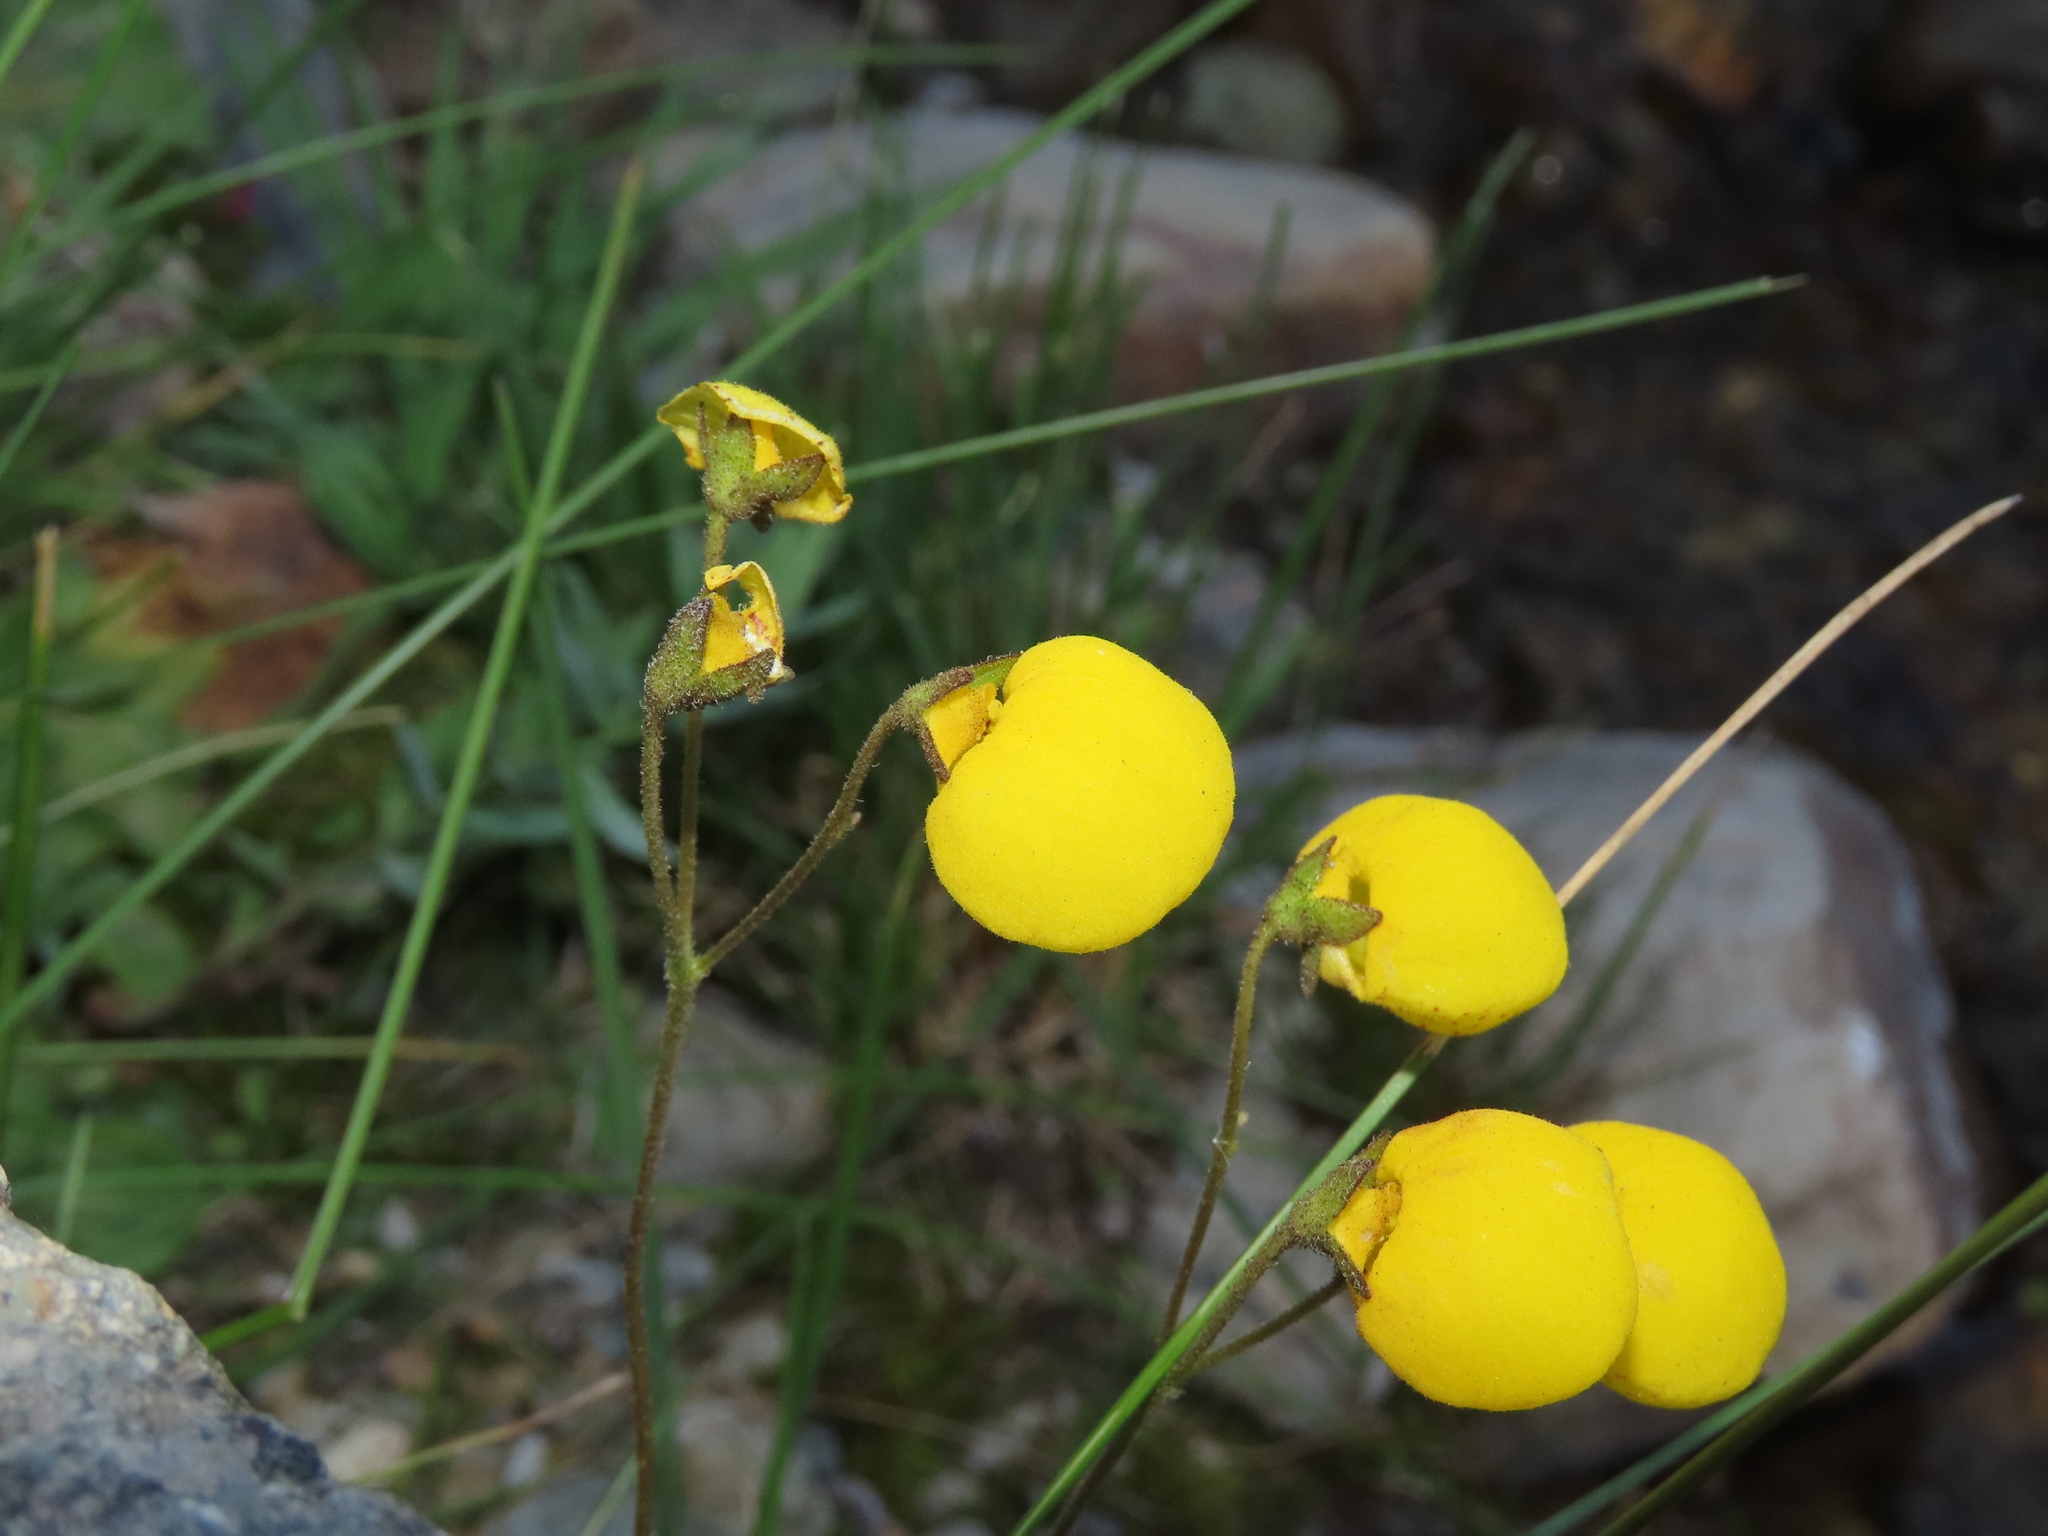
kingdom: Plantae
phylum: Tracheophyta
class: Magnoliopsida
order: Lamiales
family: Calceolariaceae
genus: Calceolaria
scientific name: Calceolaria filicaulis
